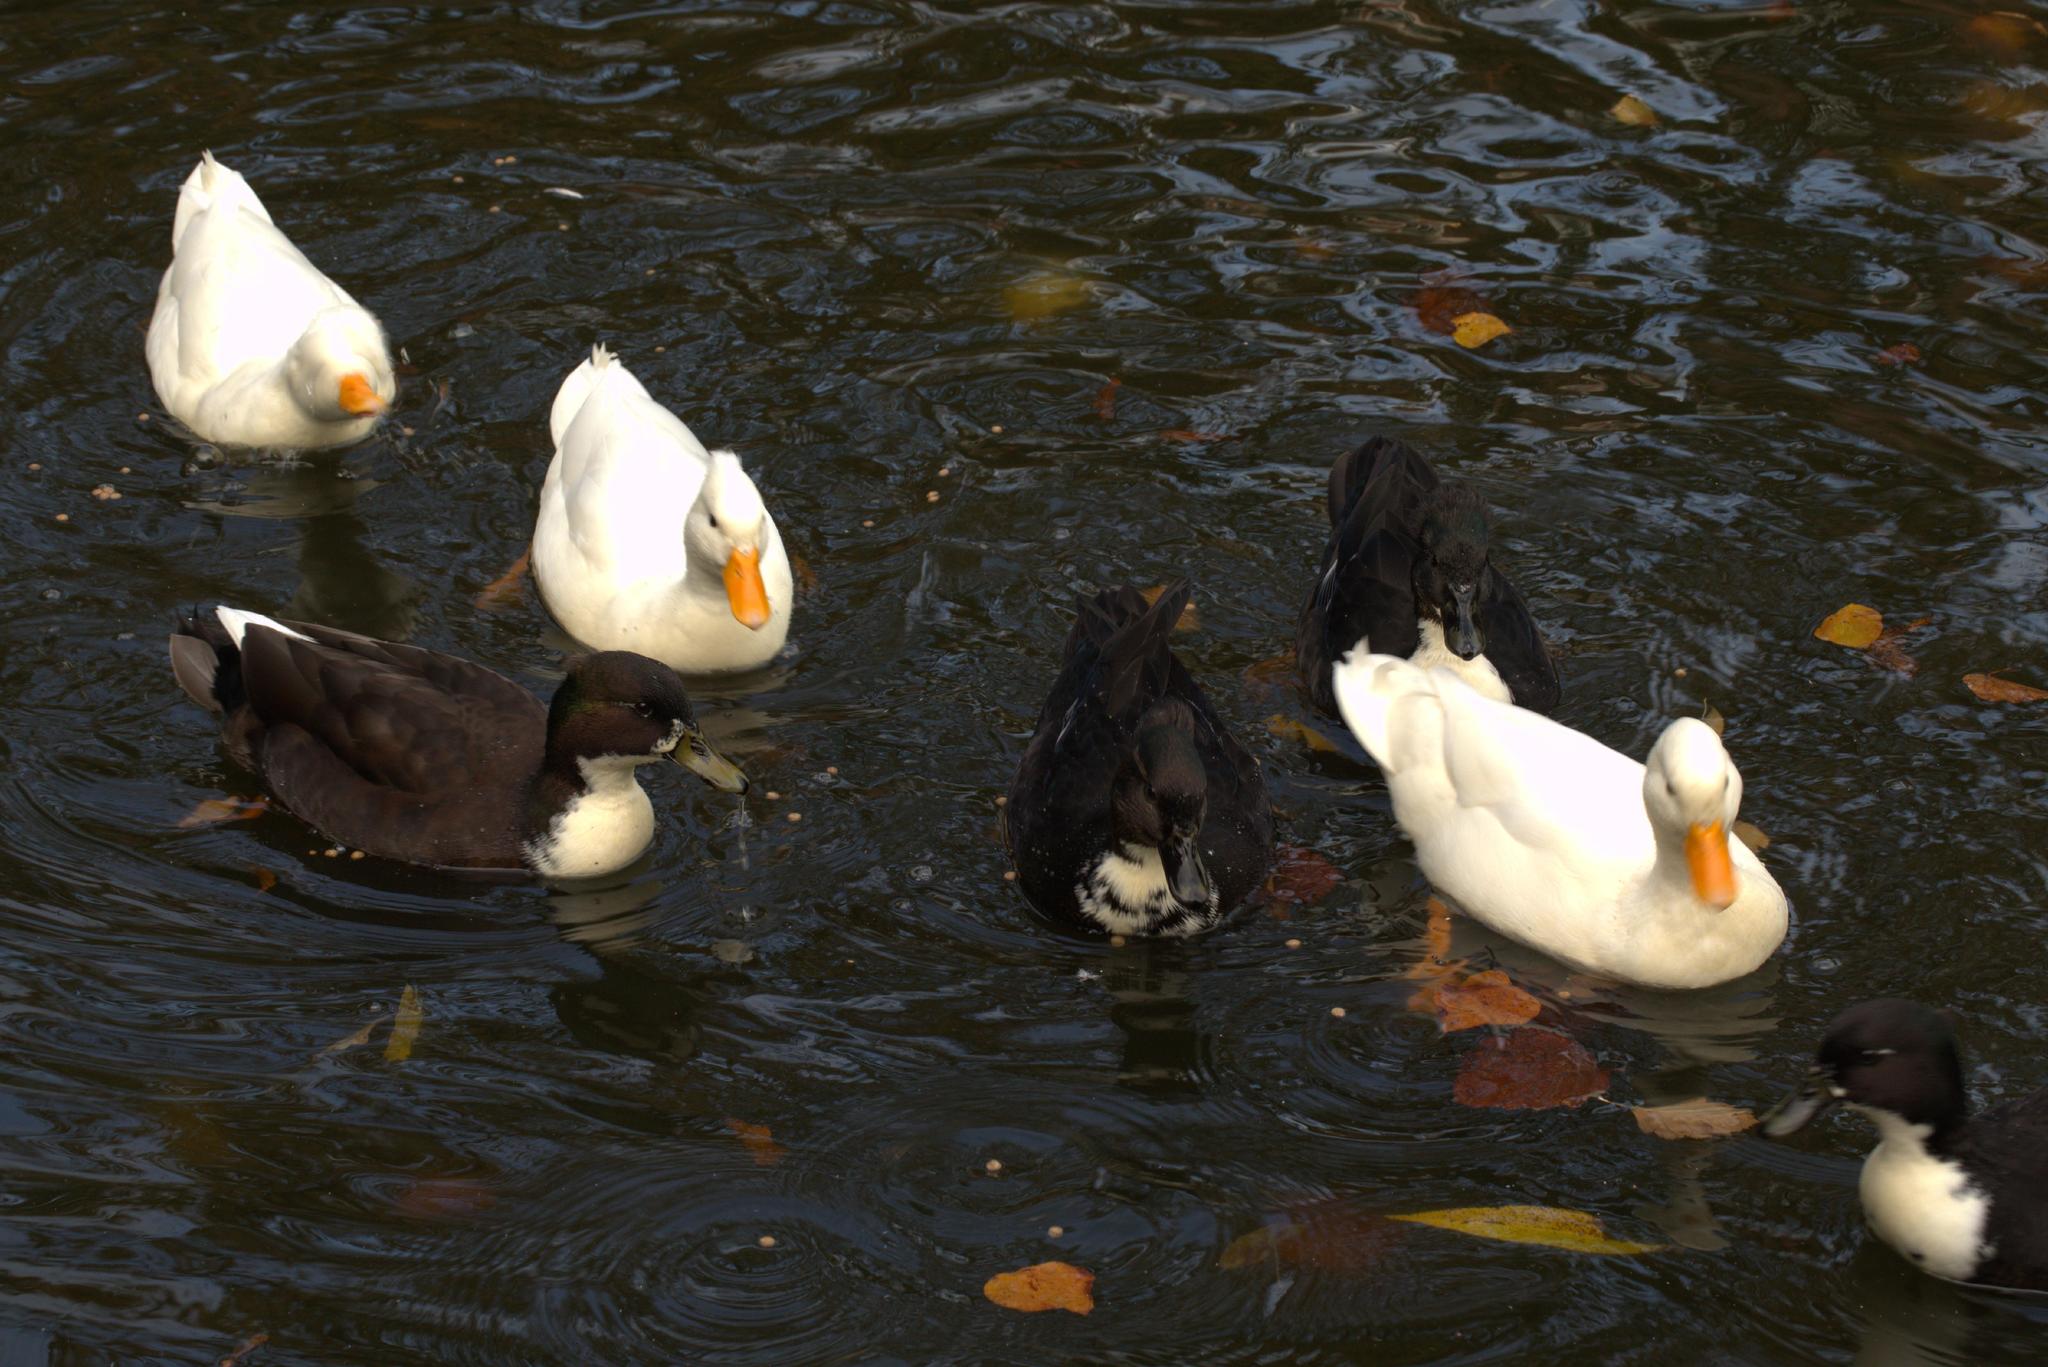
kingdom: Animalia
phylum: Chordata
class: Aves
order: Anseriformes
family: Anatidae
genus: Anas
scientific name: Anas platyrhynchos
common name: Mallard
